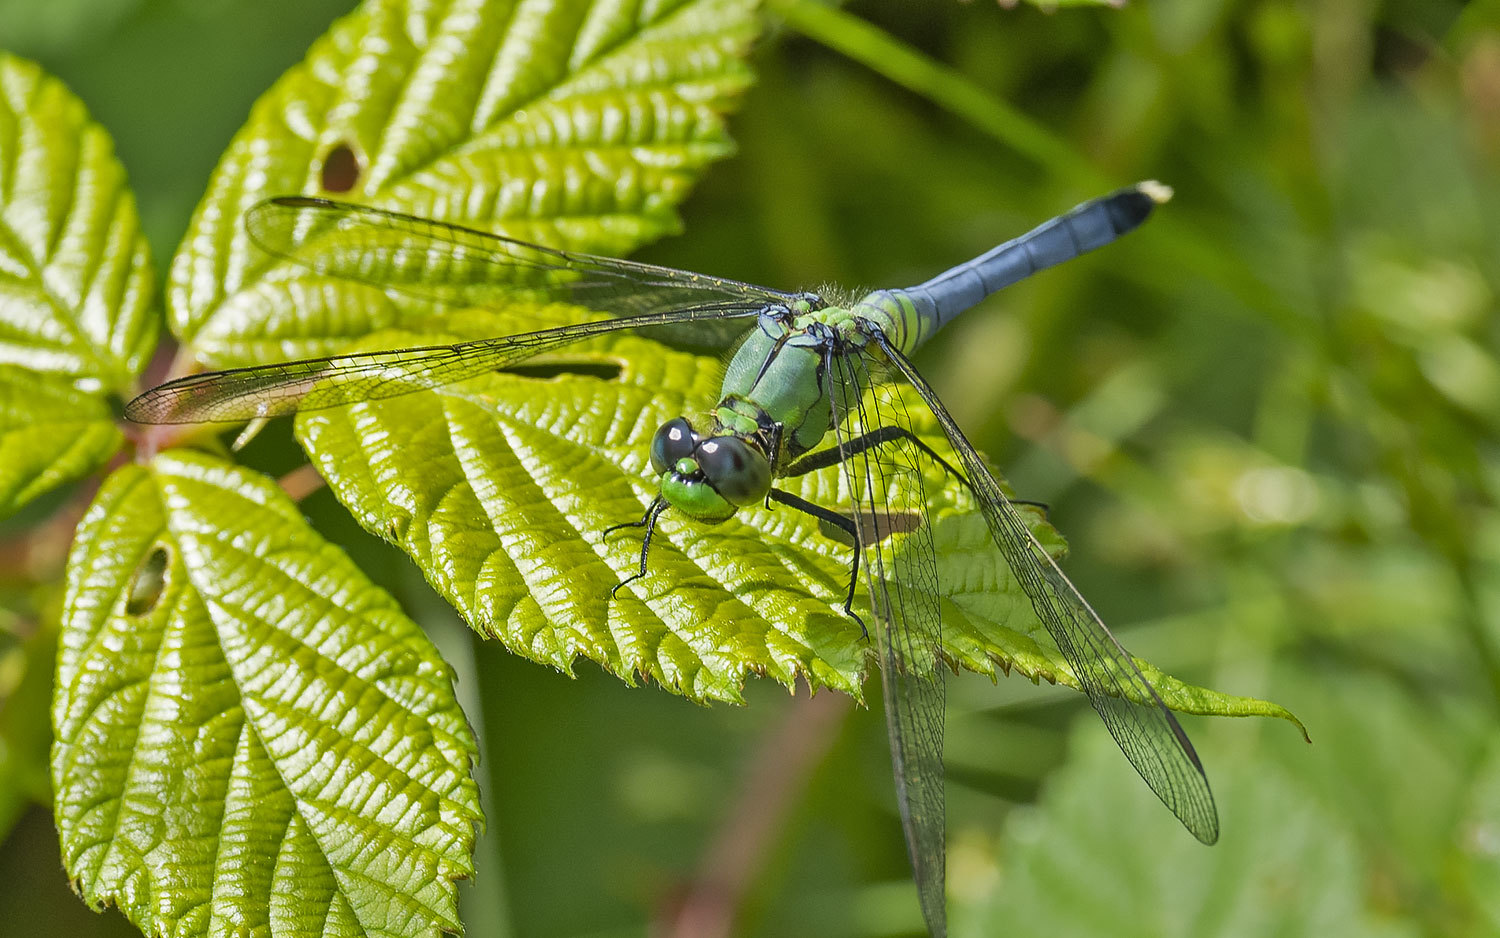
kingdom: Animalia
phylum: Arthropoda
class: Insecta
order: Odonata
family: Libellulidae
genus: Erythemis
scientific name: Erythemis simplicicollis
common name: Eastern pondhawk
